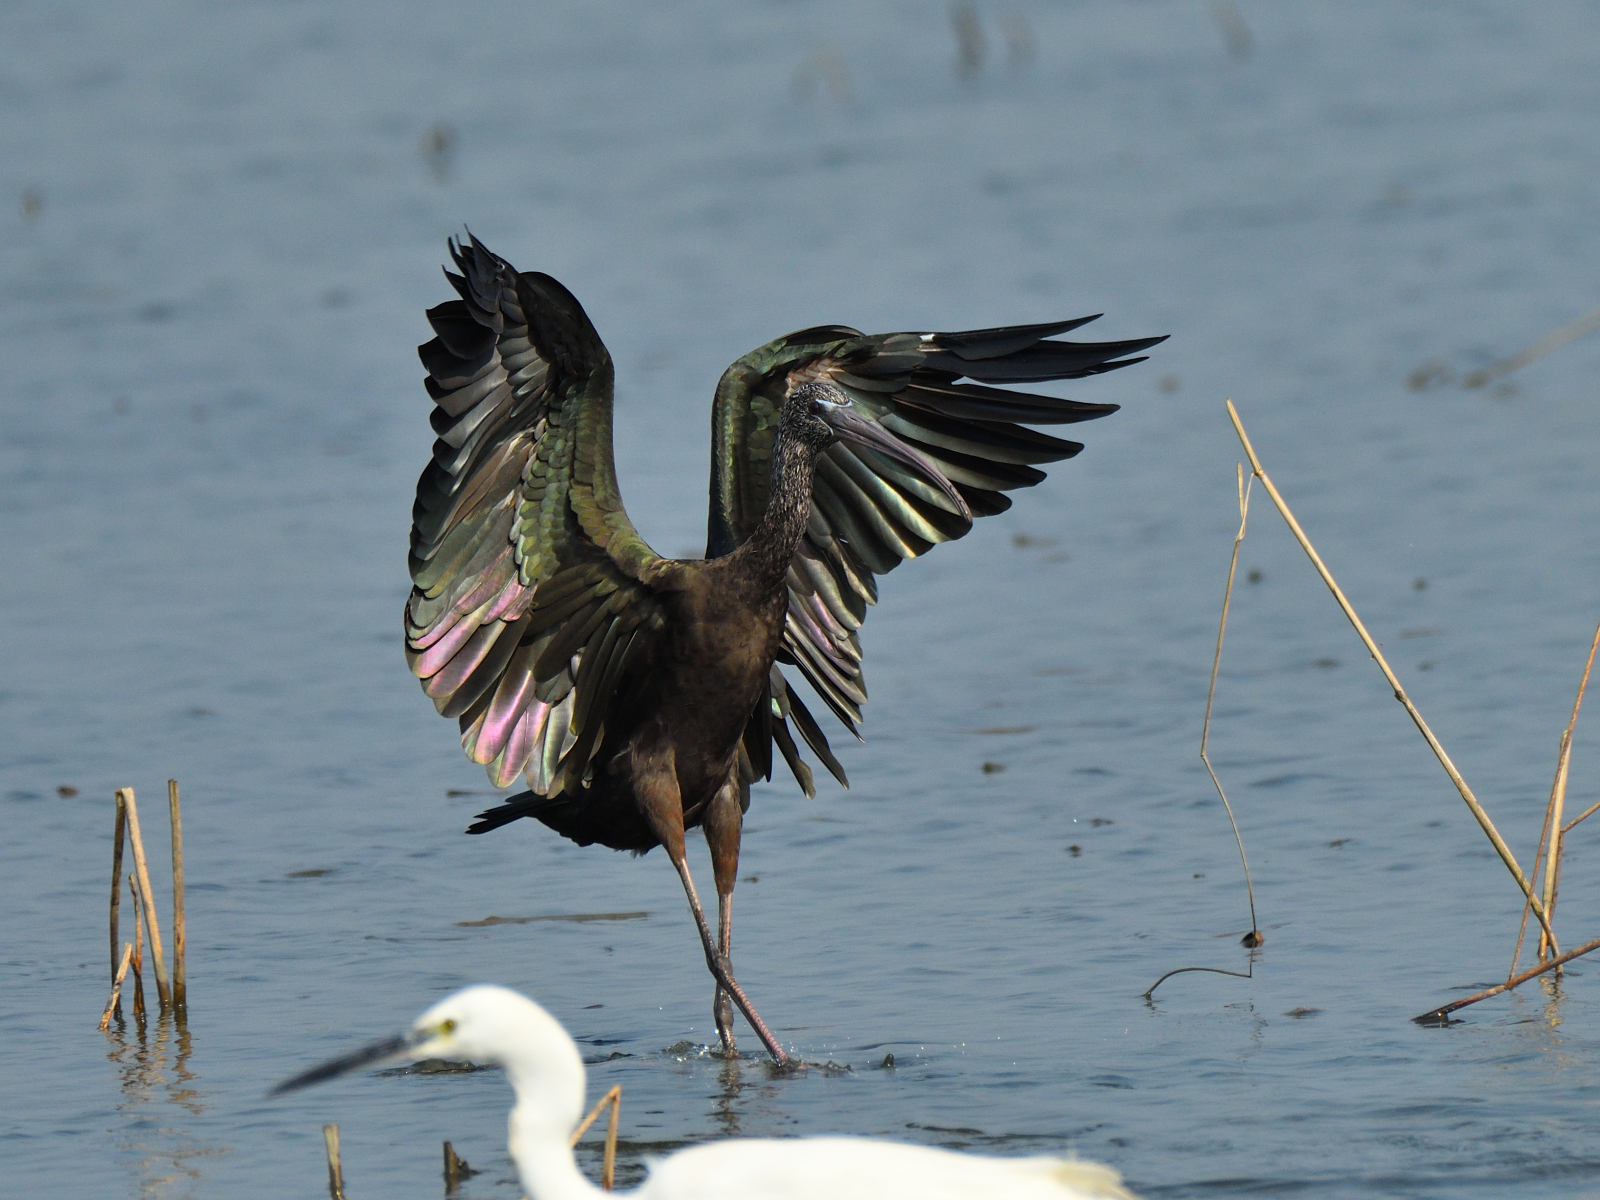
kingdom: Animalia
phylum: Chordata
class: Aves
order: Pelecaniformes
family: Threskiornithidae
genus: Plegadis
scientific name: Plegadis falcinellus
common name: Glossy ibis
